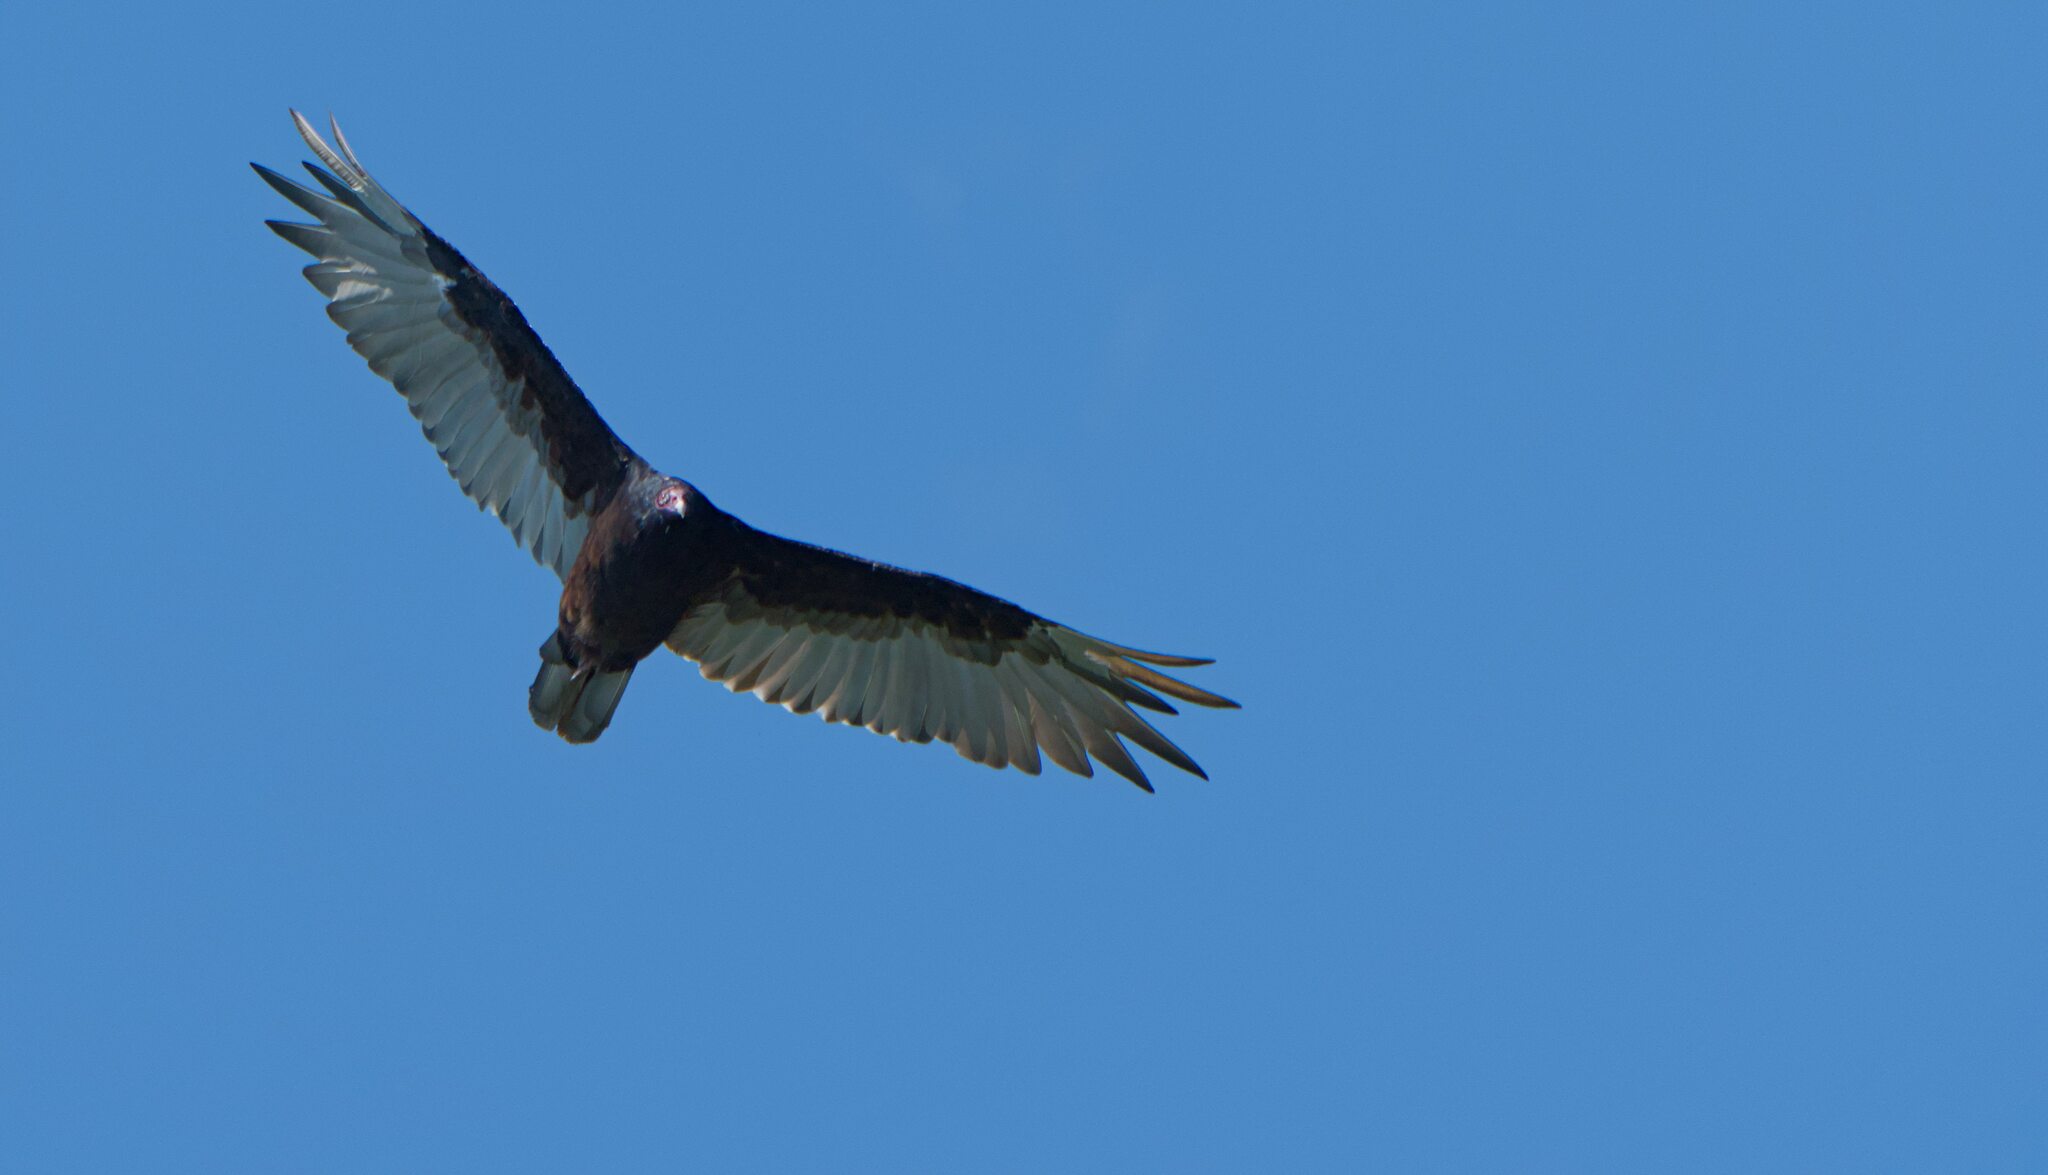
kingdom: Animalia
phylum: Chordata
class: Aves
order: Accipitriformes
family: Cathartidae
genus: Cathartes
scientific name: Cathartes aura
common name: Turkey vulture
